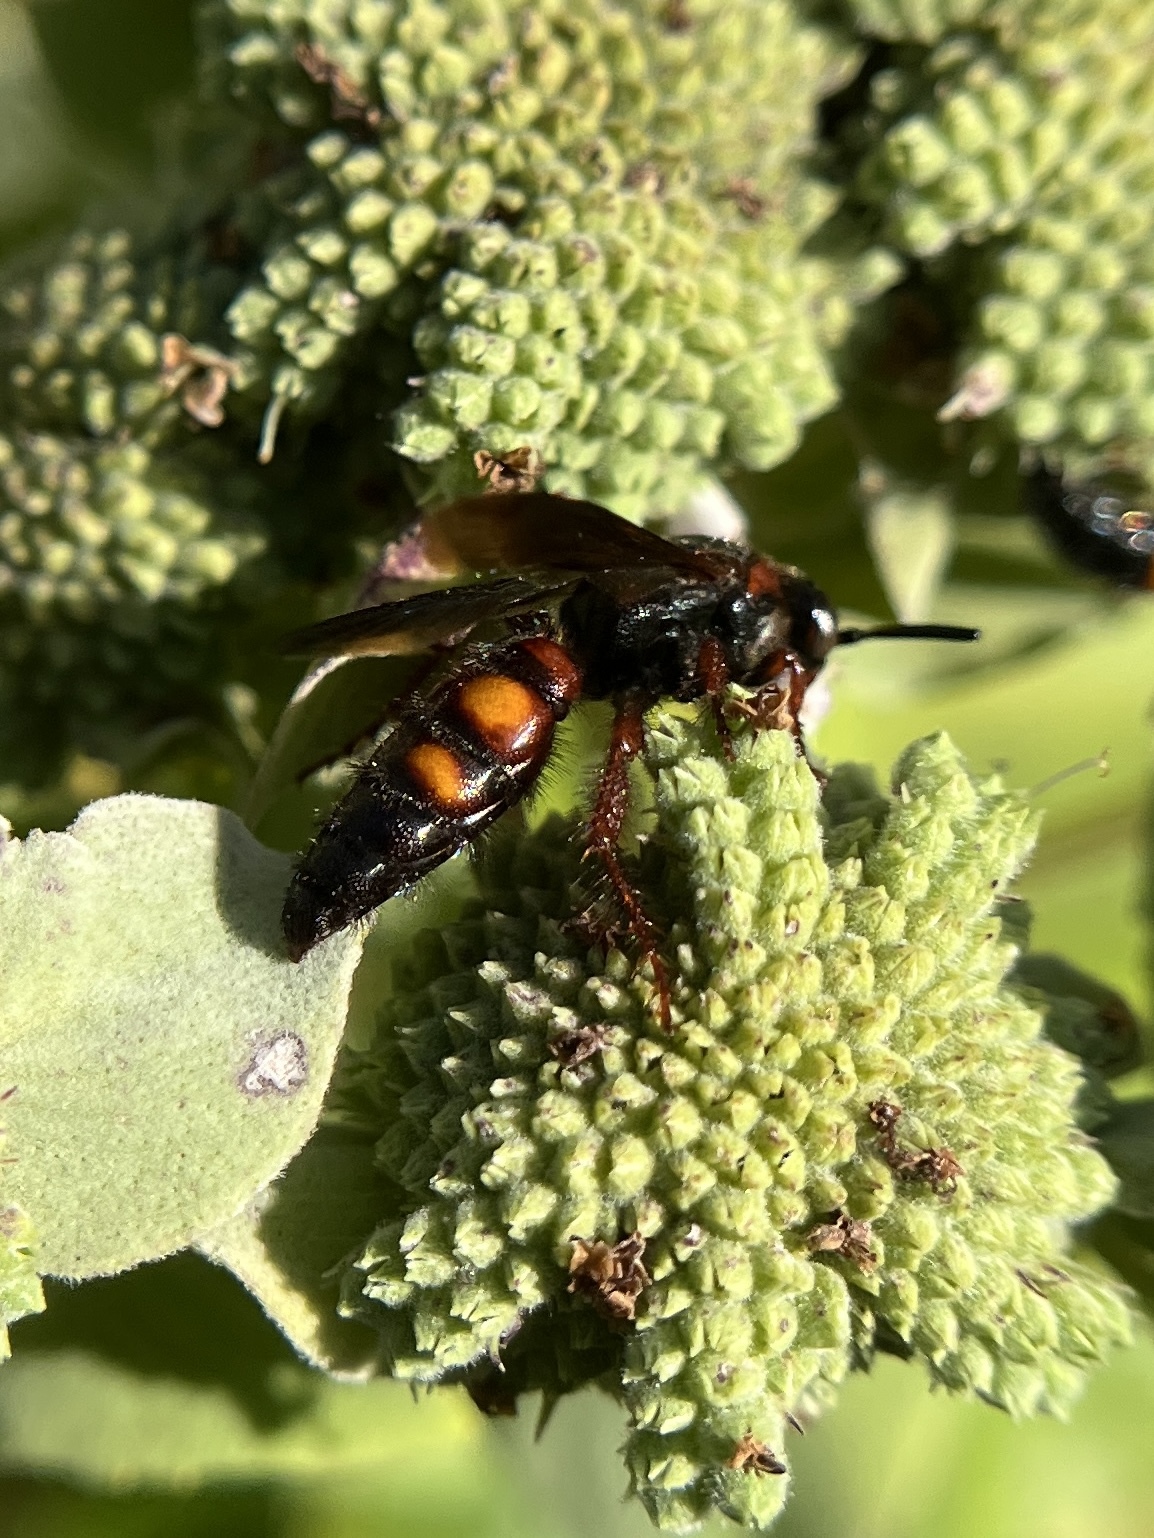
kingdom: Animalia
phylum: Arthropoda
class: Insecta
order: Hymenoptera
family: Scoliidae
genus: Scolia
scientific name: Scolia nobilitata
